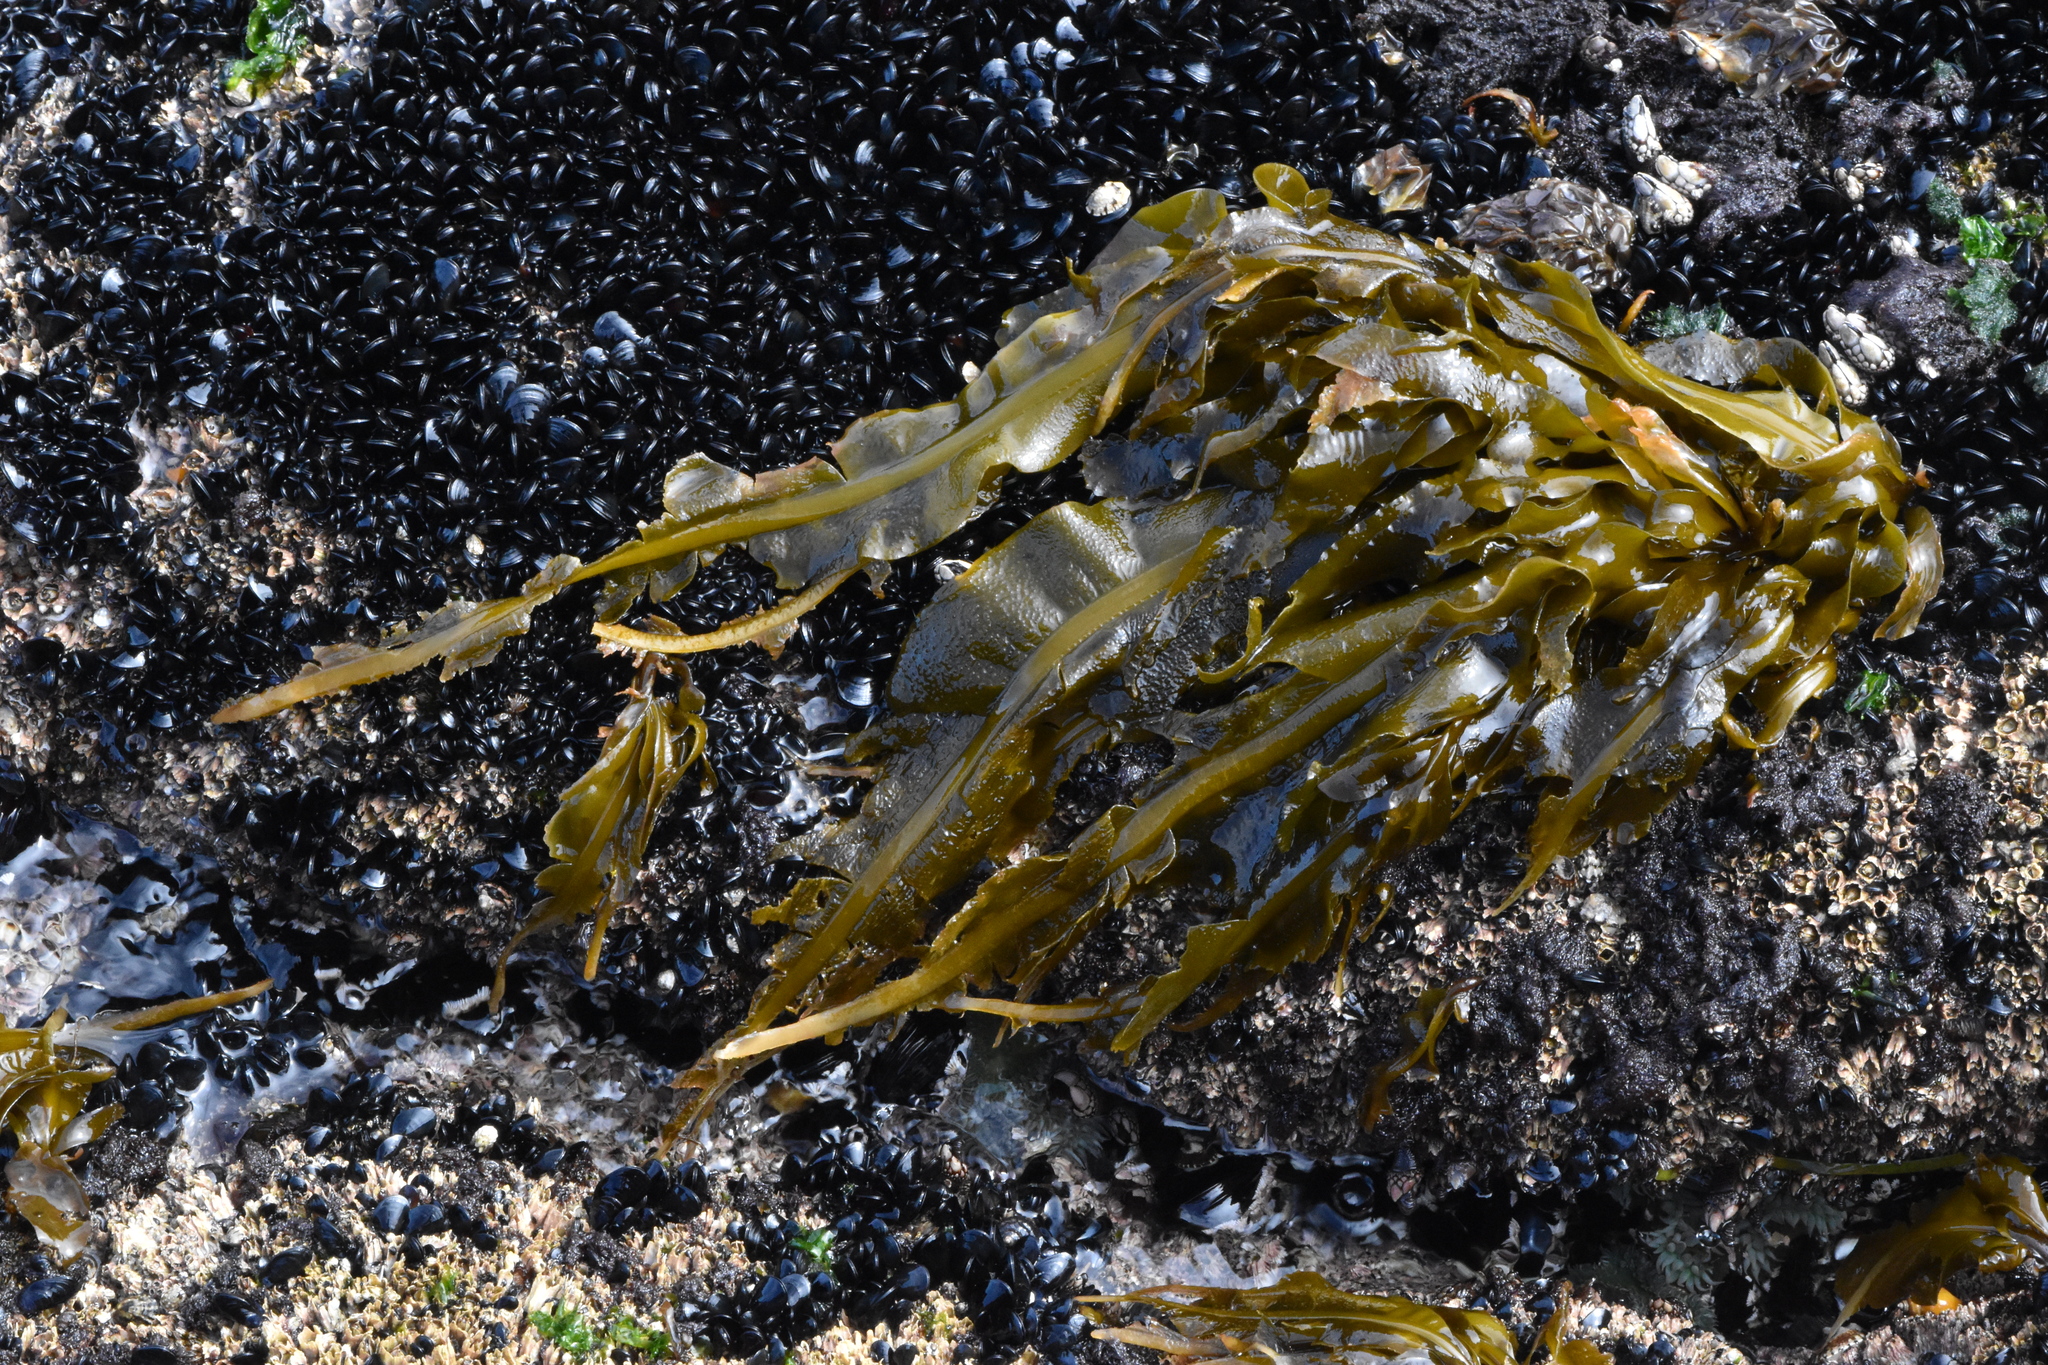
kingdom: Chromista
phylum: Ochrophyta
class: Phaeophyceae
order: Laminariales
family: Alariaceae
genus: Alaria
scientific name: Alaria marginata
